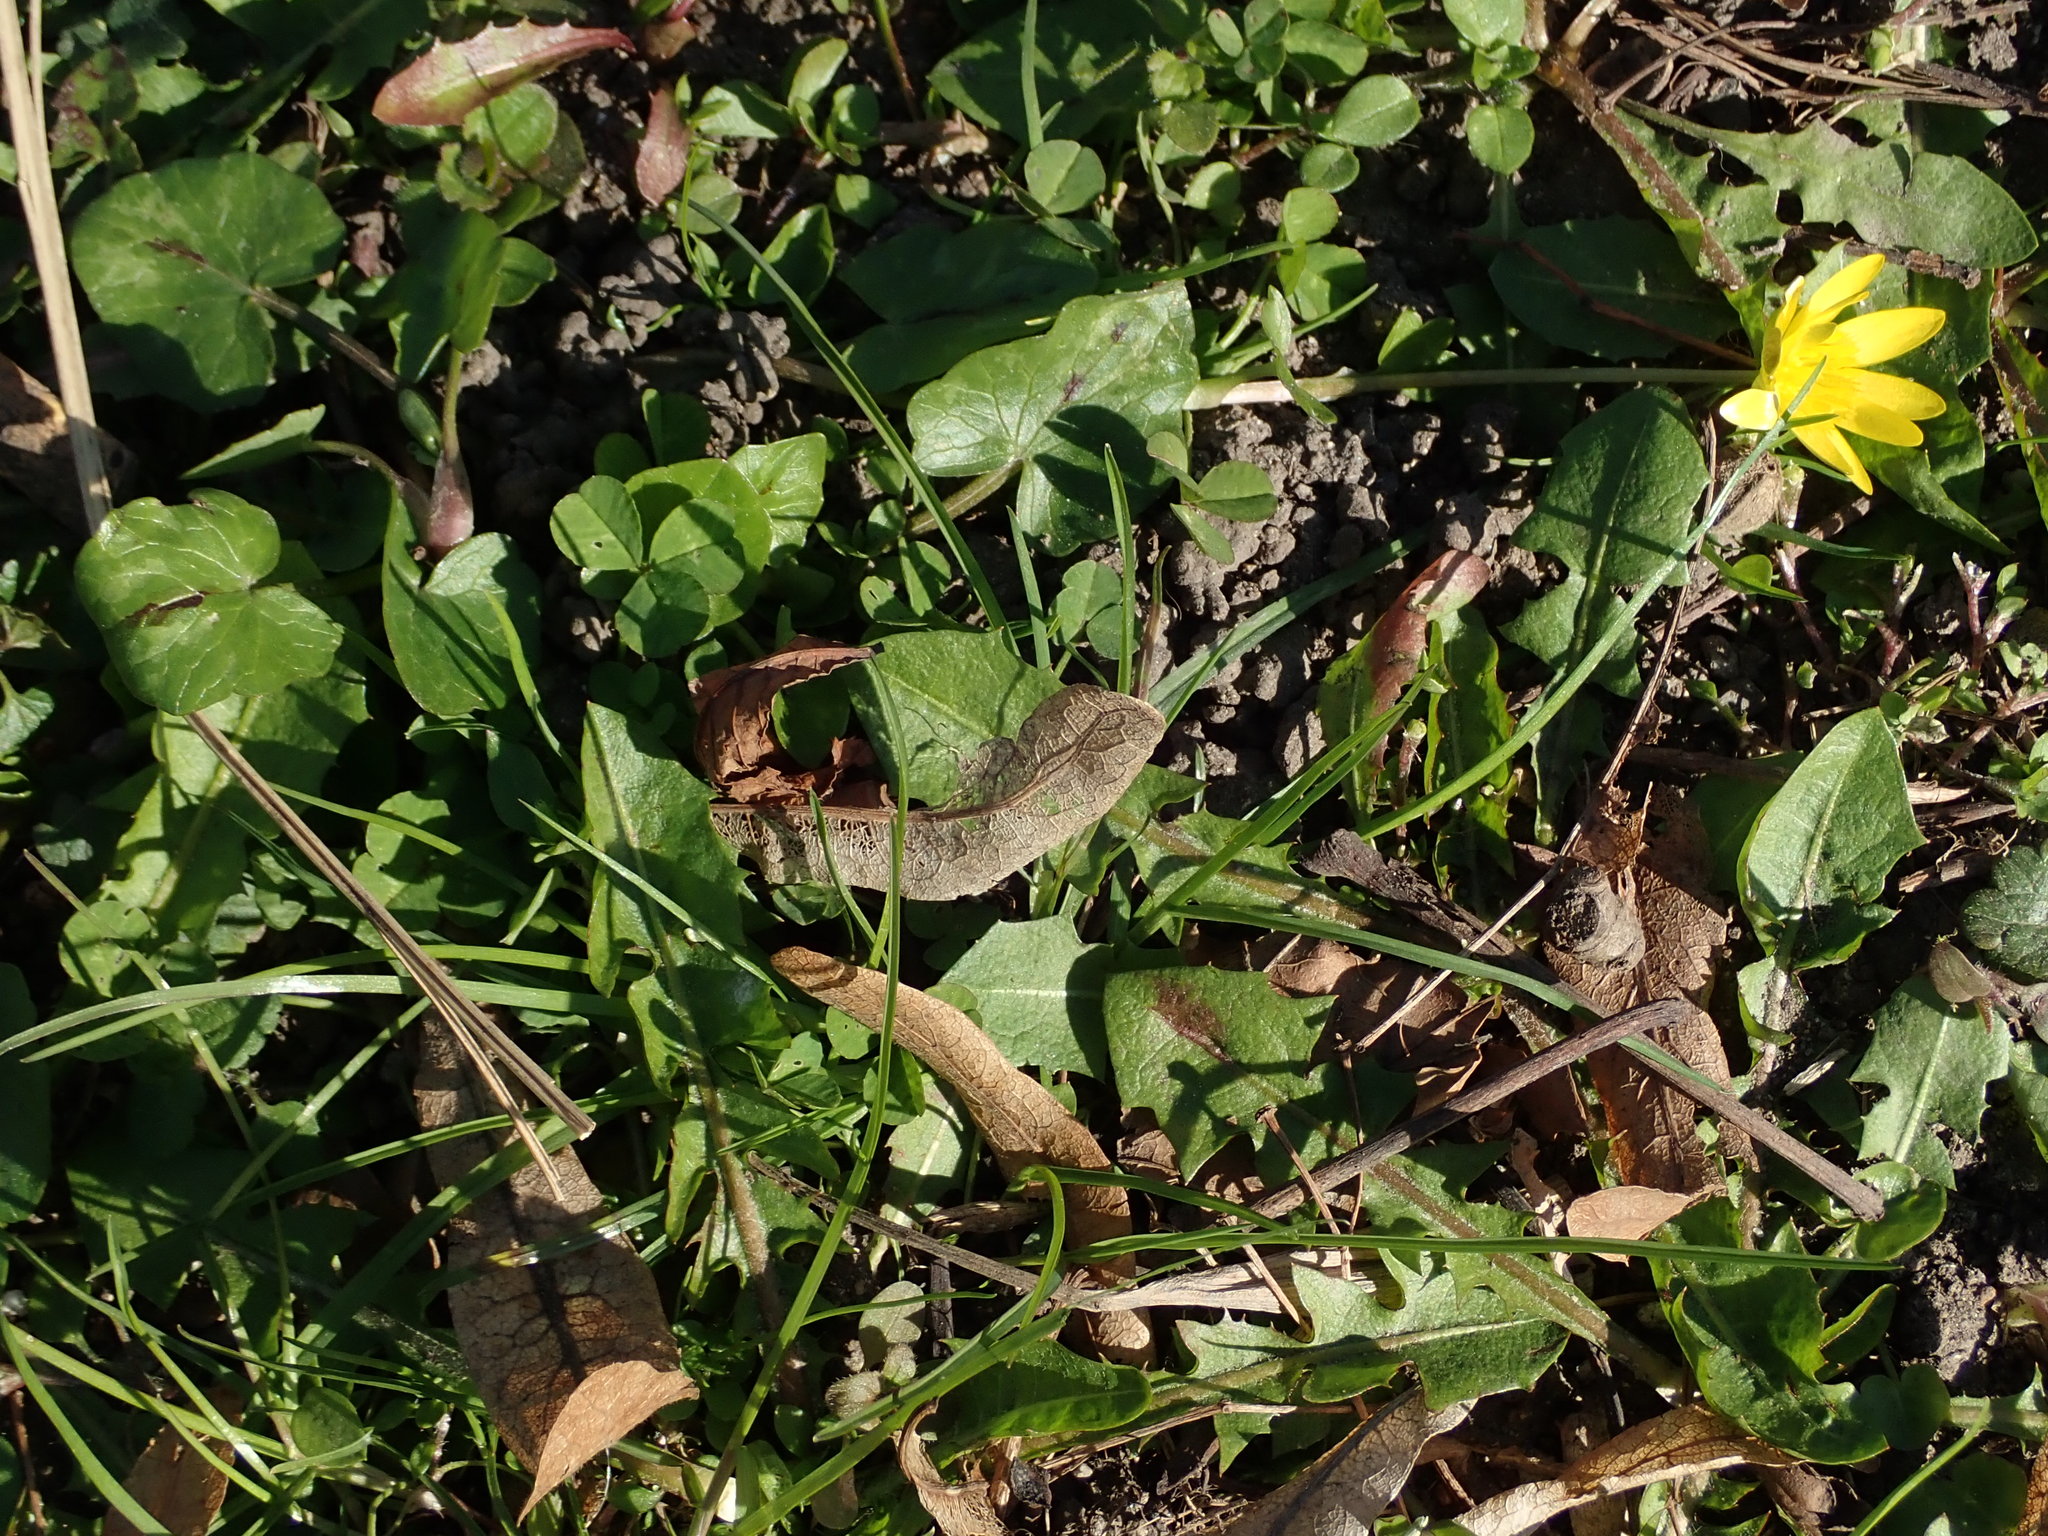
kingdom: Plantae
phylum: Tracheophyta
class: Magnoliopsida
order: Ranunculales
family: Ranunculaceae
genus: Ficaria
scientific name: Ficaria verna
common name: Lesser celandine
